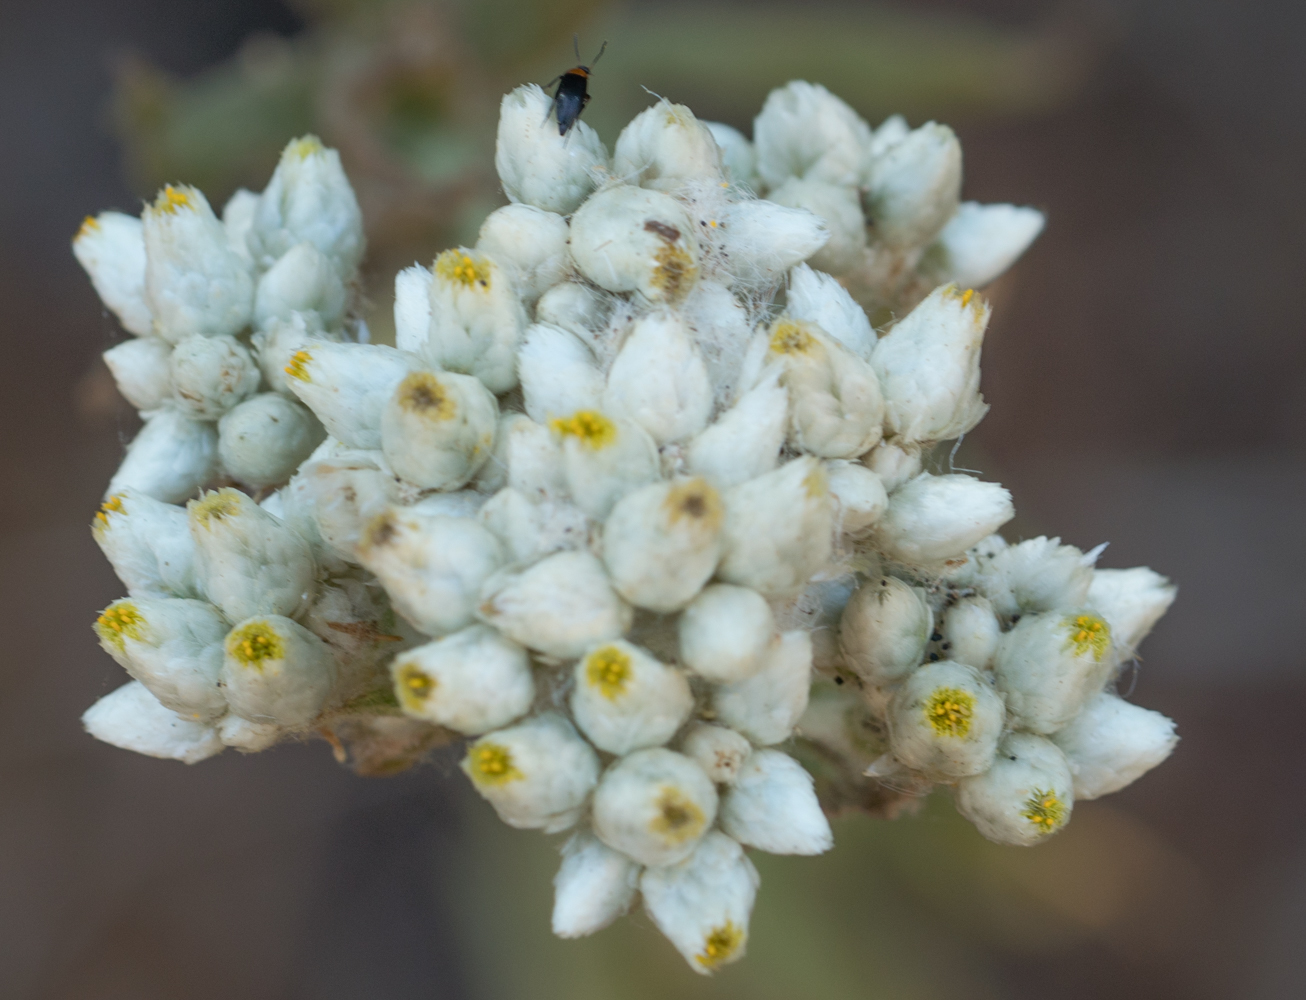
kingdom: Plantae
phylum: Tracheophyta
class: Magnoliopsida
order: Asterales
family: Asteraceae
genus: Pseudognaphalium
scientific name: Pseudognaphalium californicum
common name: California rabbit-tobacco
